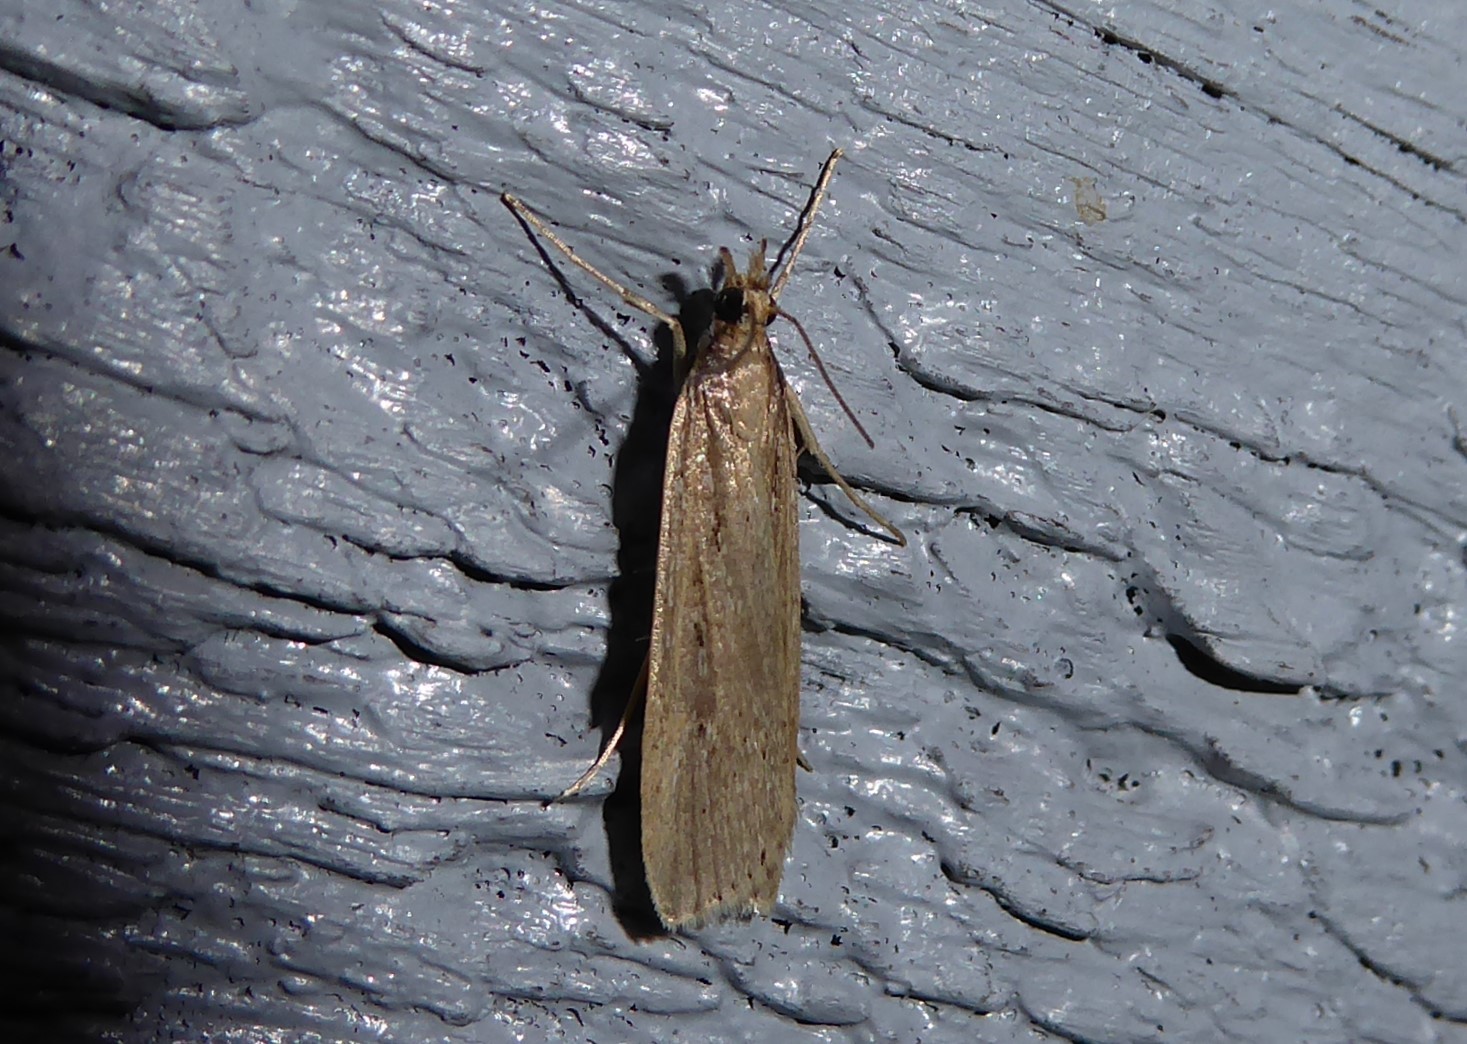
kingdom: Animalia
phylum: Arthropoda
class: Insecta
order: Lepidoptera
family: Crambidae
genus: Eudonia
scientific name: Eudonia sabulosella
